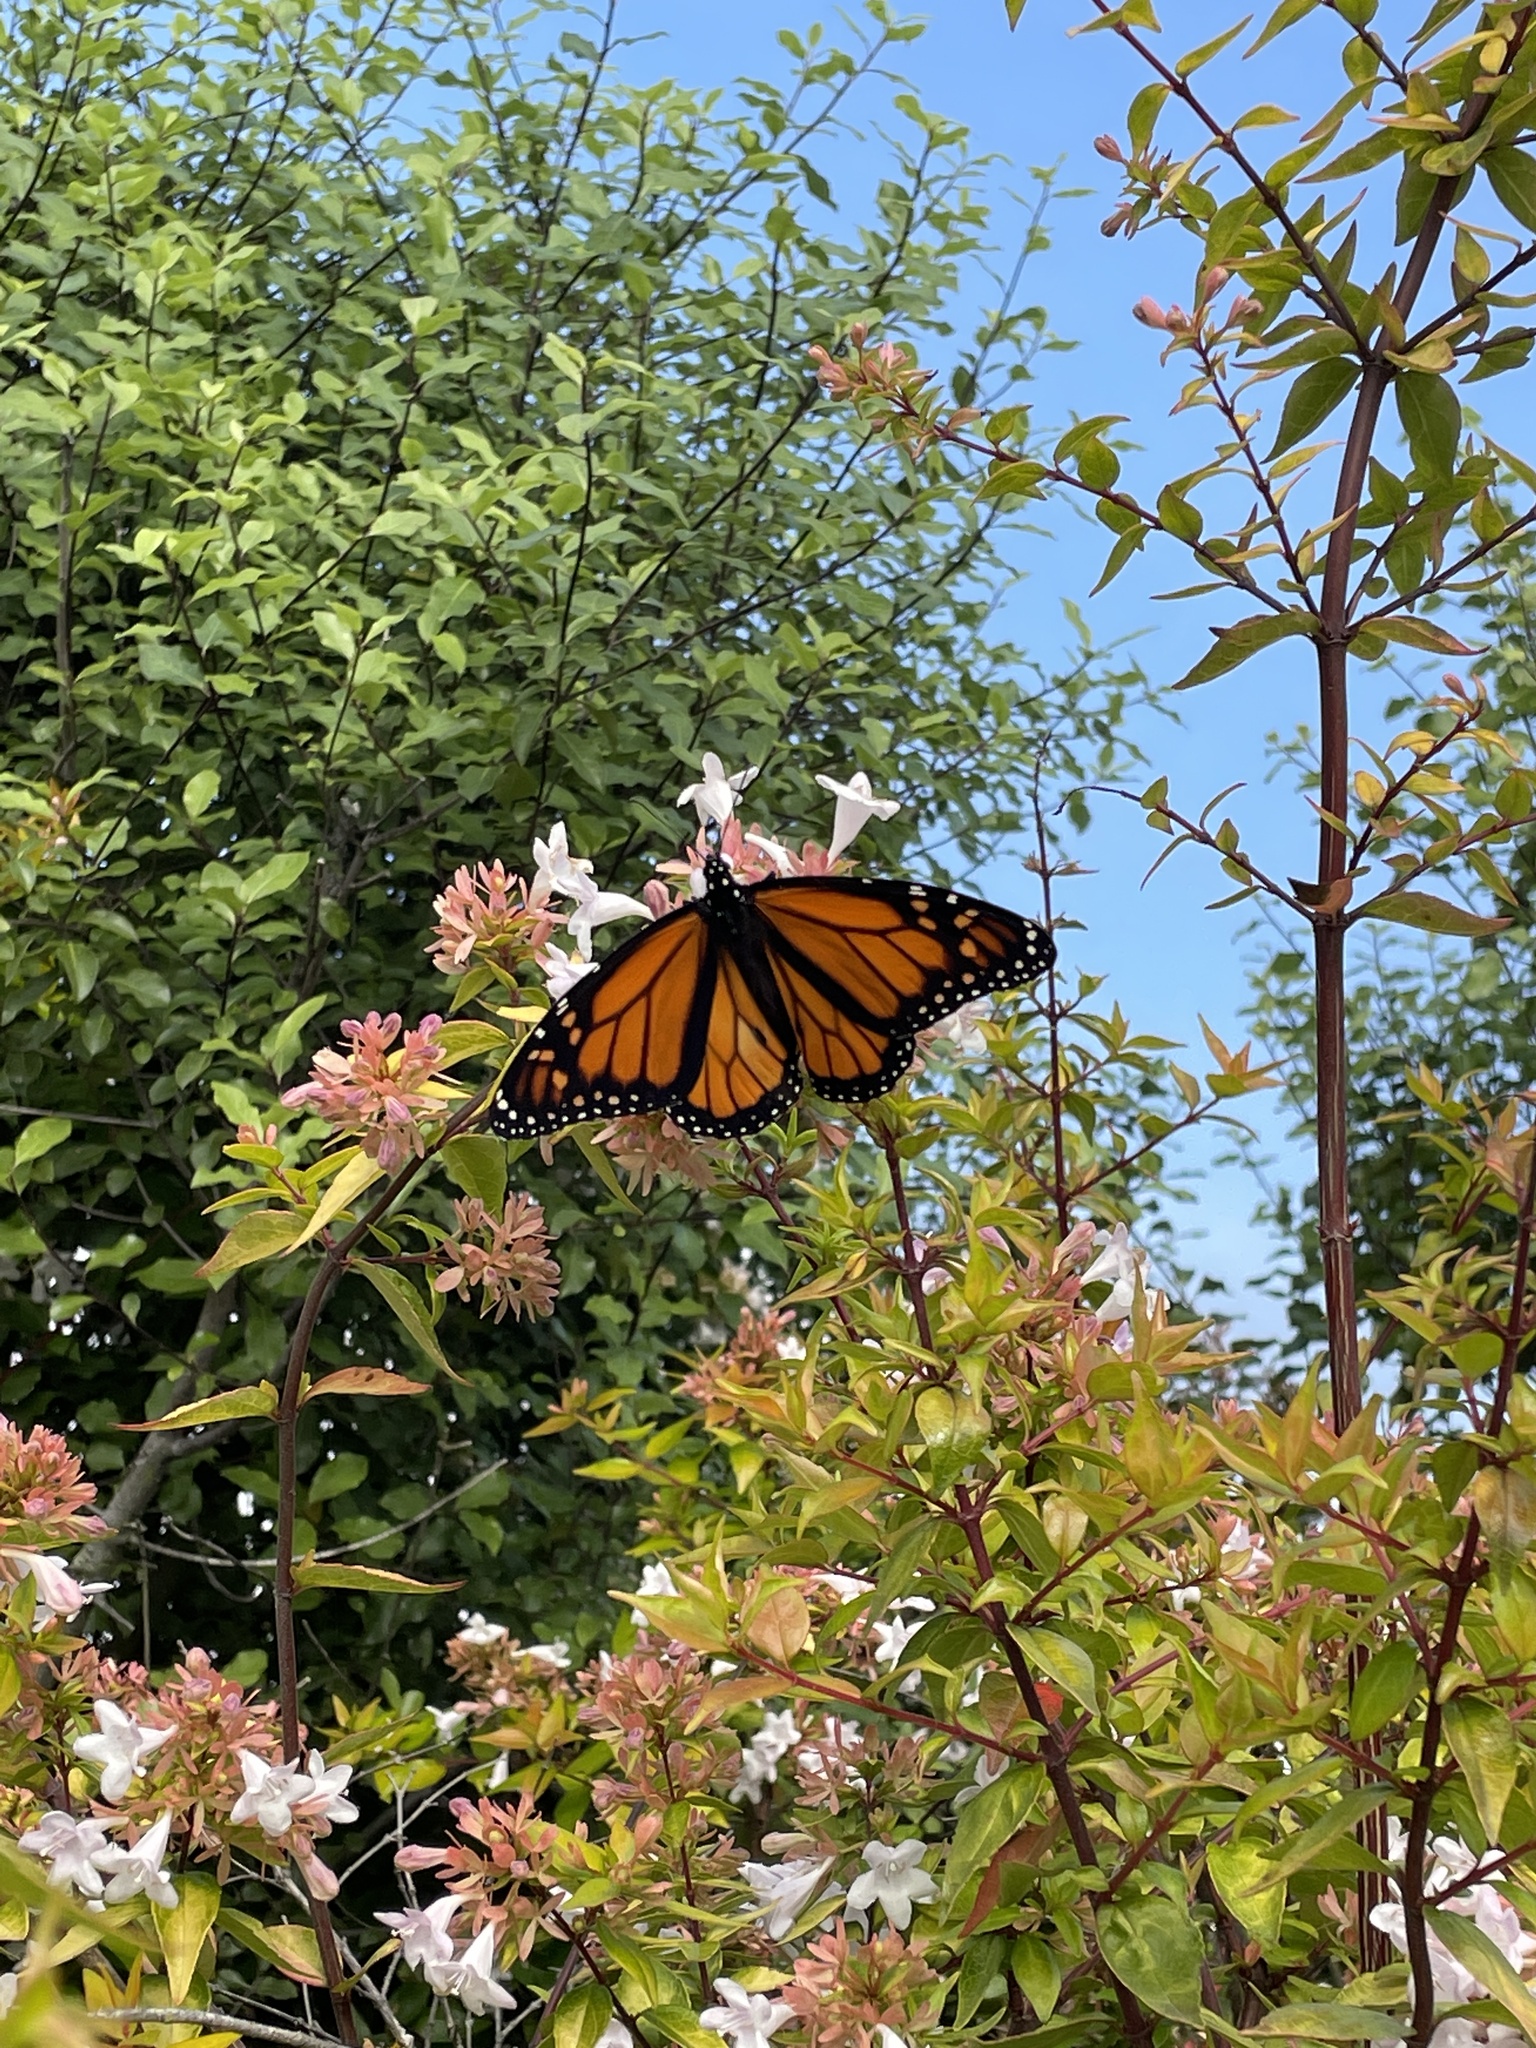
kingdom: Animalia
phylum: Arthropoda
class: Insecta
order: Lepidoptera
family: Nymphalidae
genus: Danaus
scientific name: Danaus plexippus
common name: Monarch
